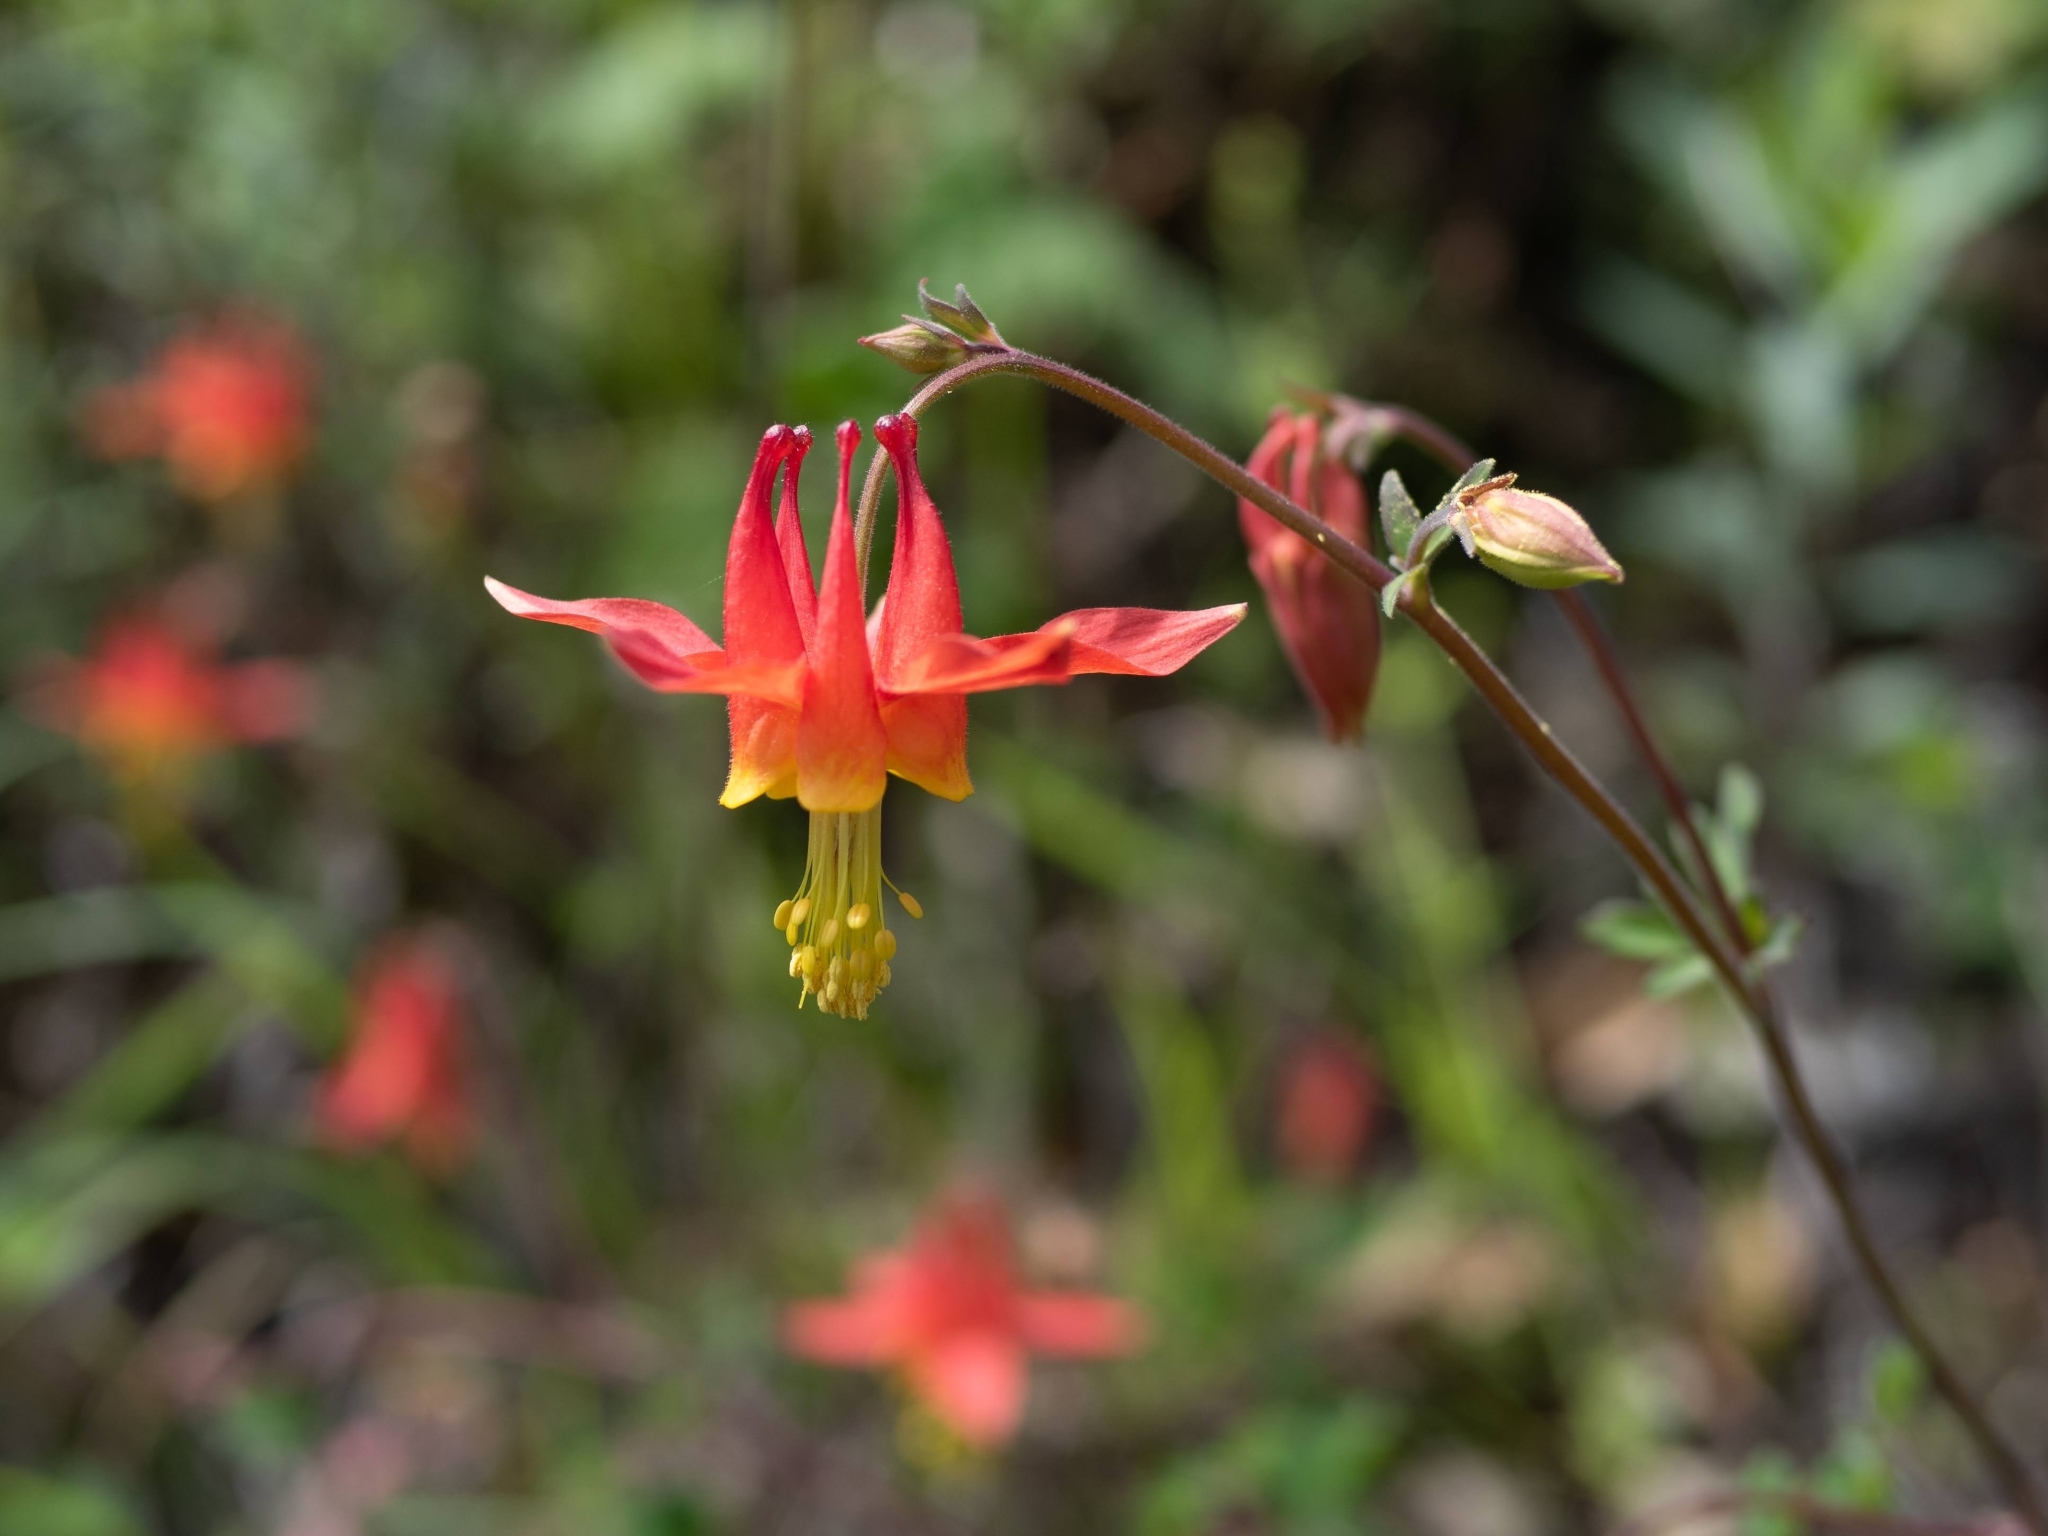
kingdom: Plantae
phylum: Tracheophyta
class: Magnoliopsida
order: Ranunculales
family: Ranunculaceae
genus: Aquilegia
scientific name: Aquilegia formosa
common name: Sitka columbine
